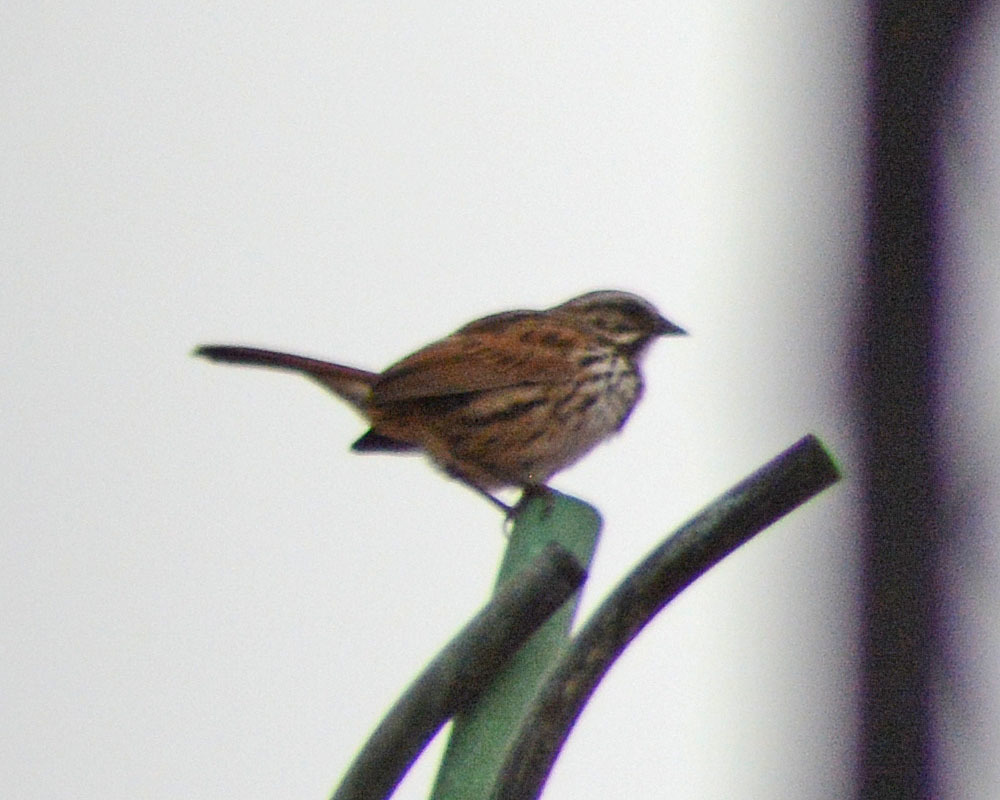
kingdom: Animalia
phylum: Chordata
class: Aves
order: Passeriformes
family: Passerellidae
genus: Melospiza
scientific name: Melospiza melodia
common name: Song sparrow
